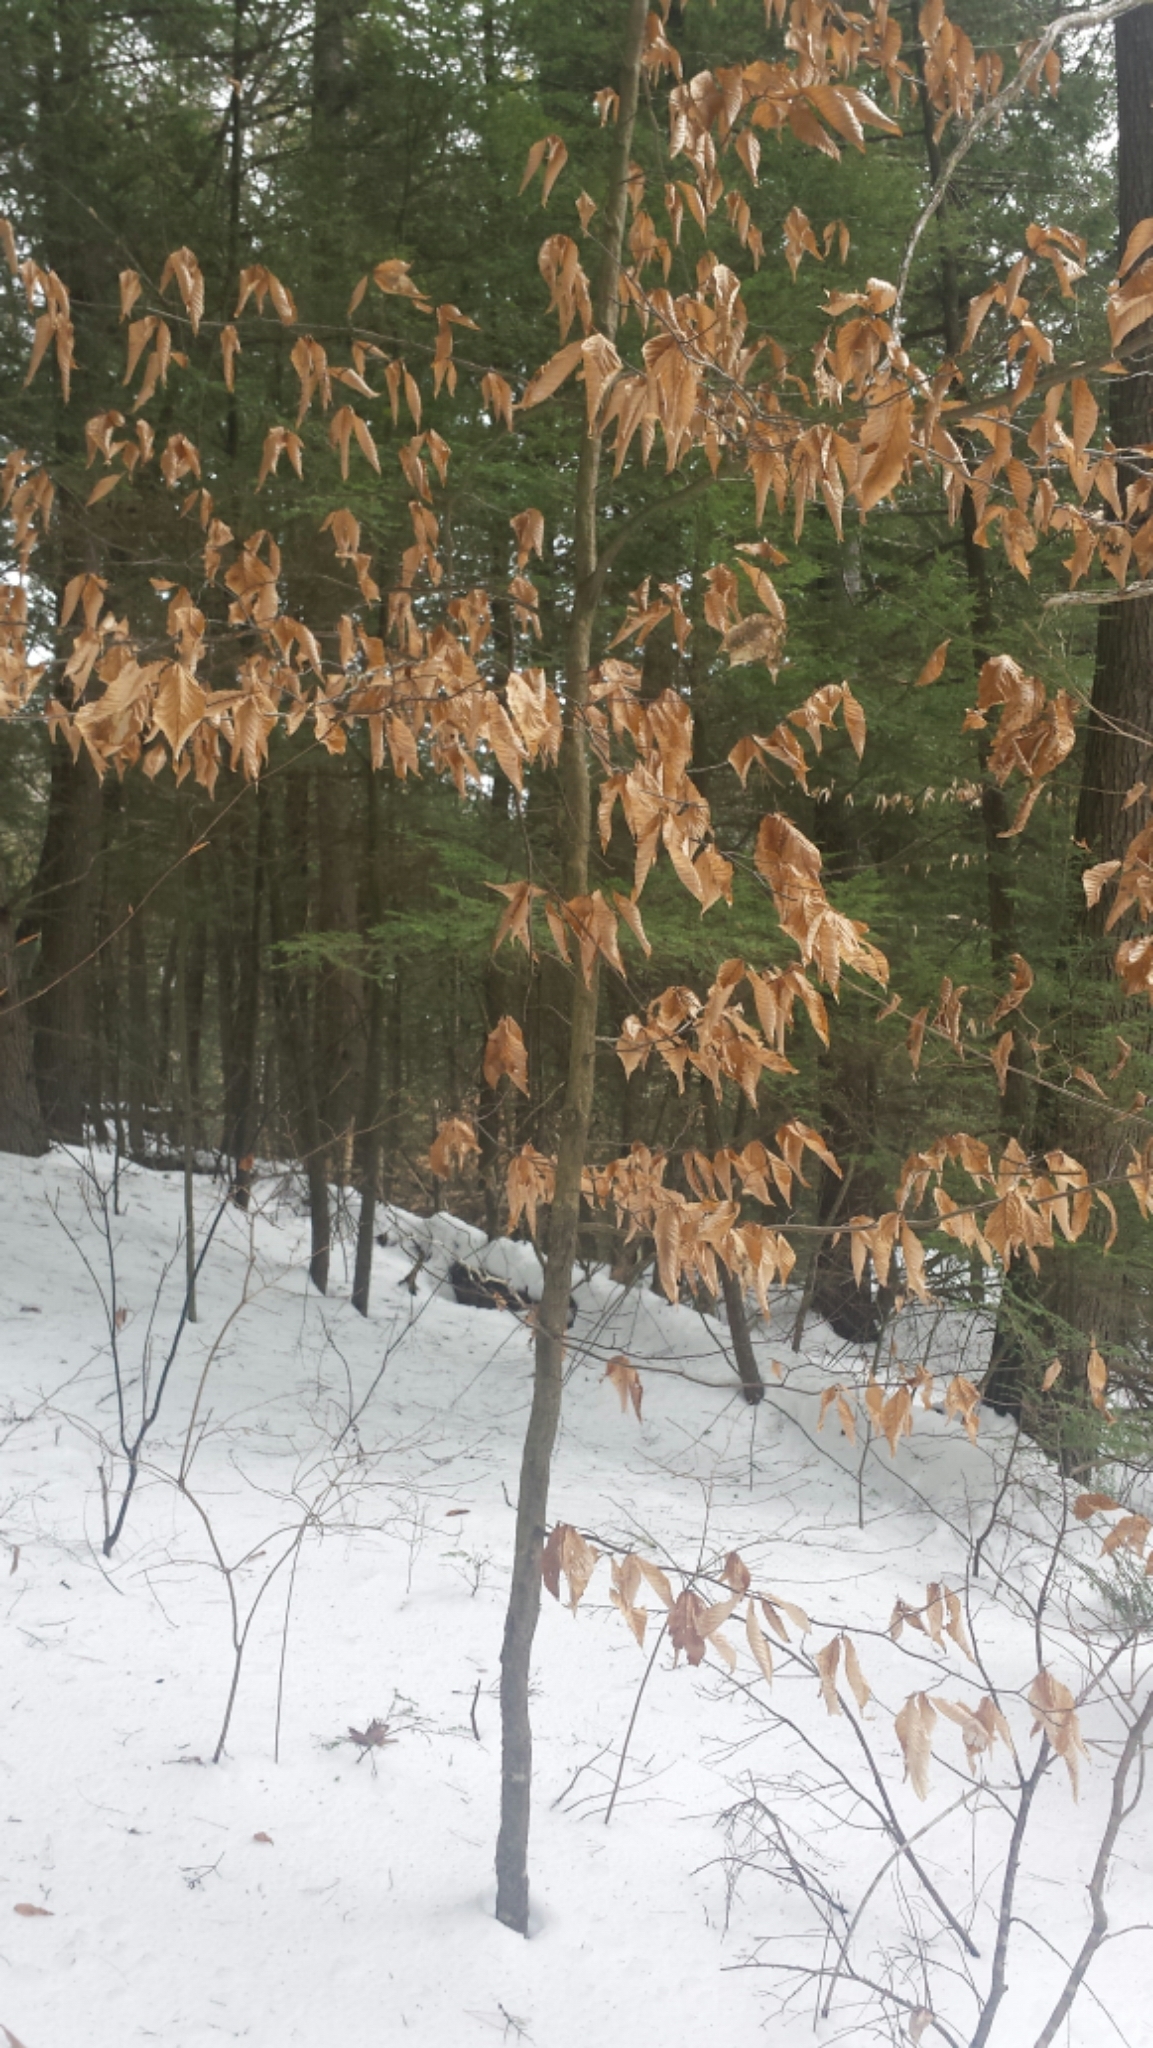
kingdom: Plantae
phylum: Tracheophyta
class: Magnoliopsida
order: Fagales
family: Fagaceae
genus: Fagus
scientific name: Fagus grandifolia
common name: American beech
